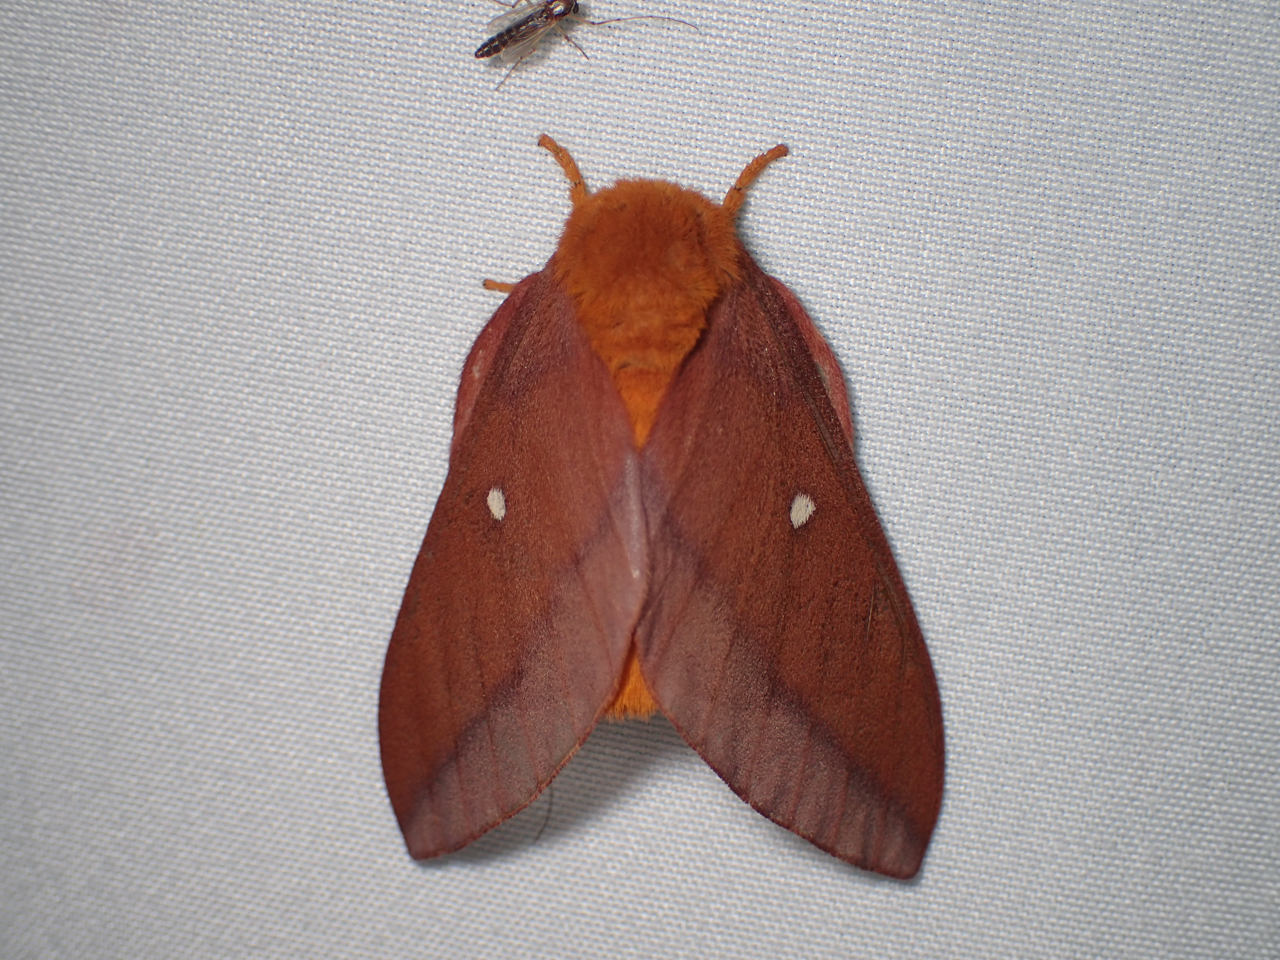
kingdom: Animalia
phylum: Arthropoda
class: Insecta
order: Lepidoptera
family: Saturniidae
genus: Anisota
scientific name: Anisota virginiensis
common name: Pink striped oakworm moth
